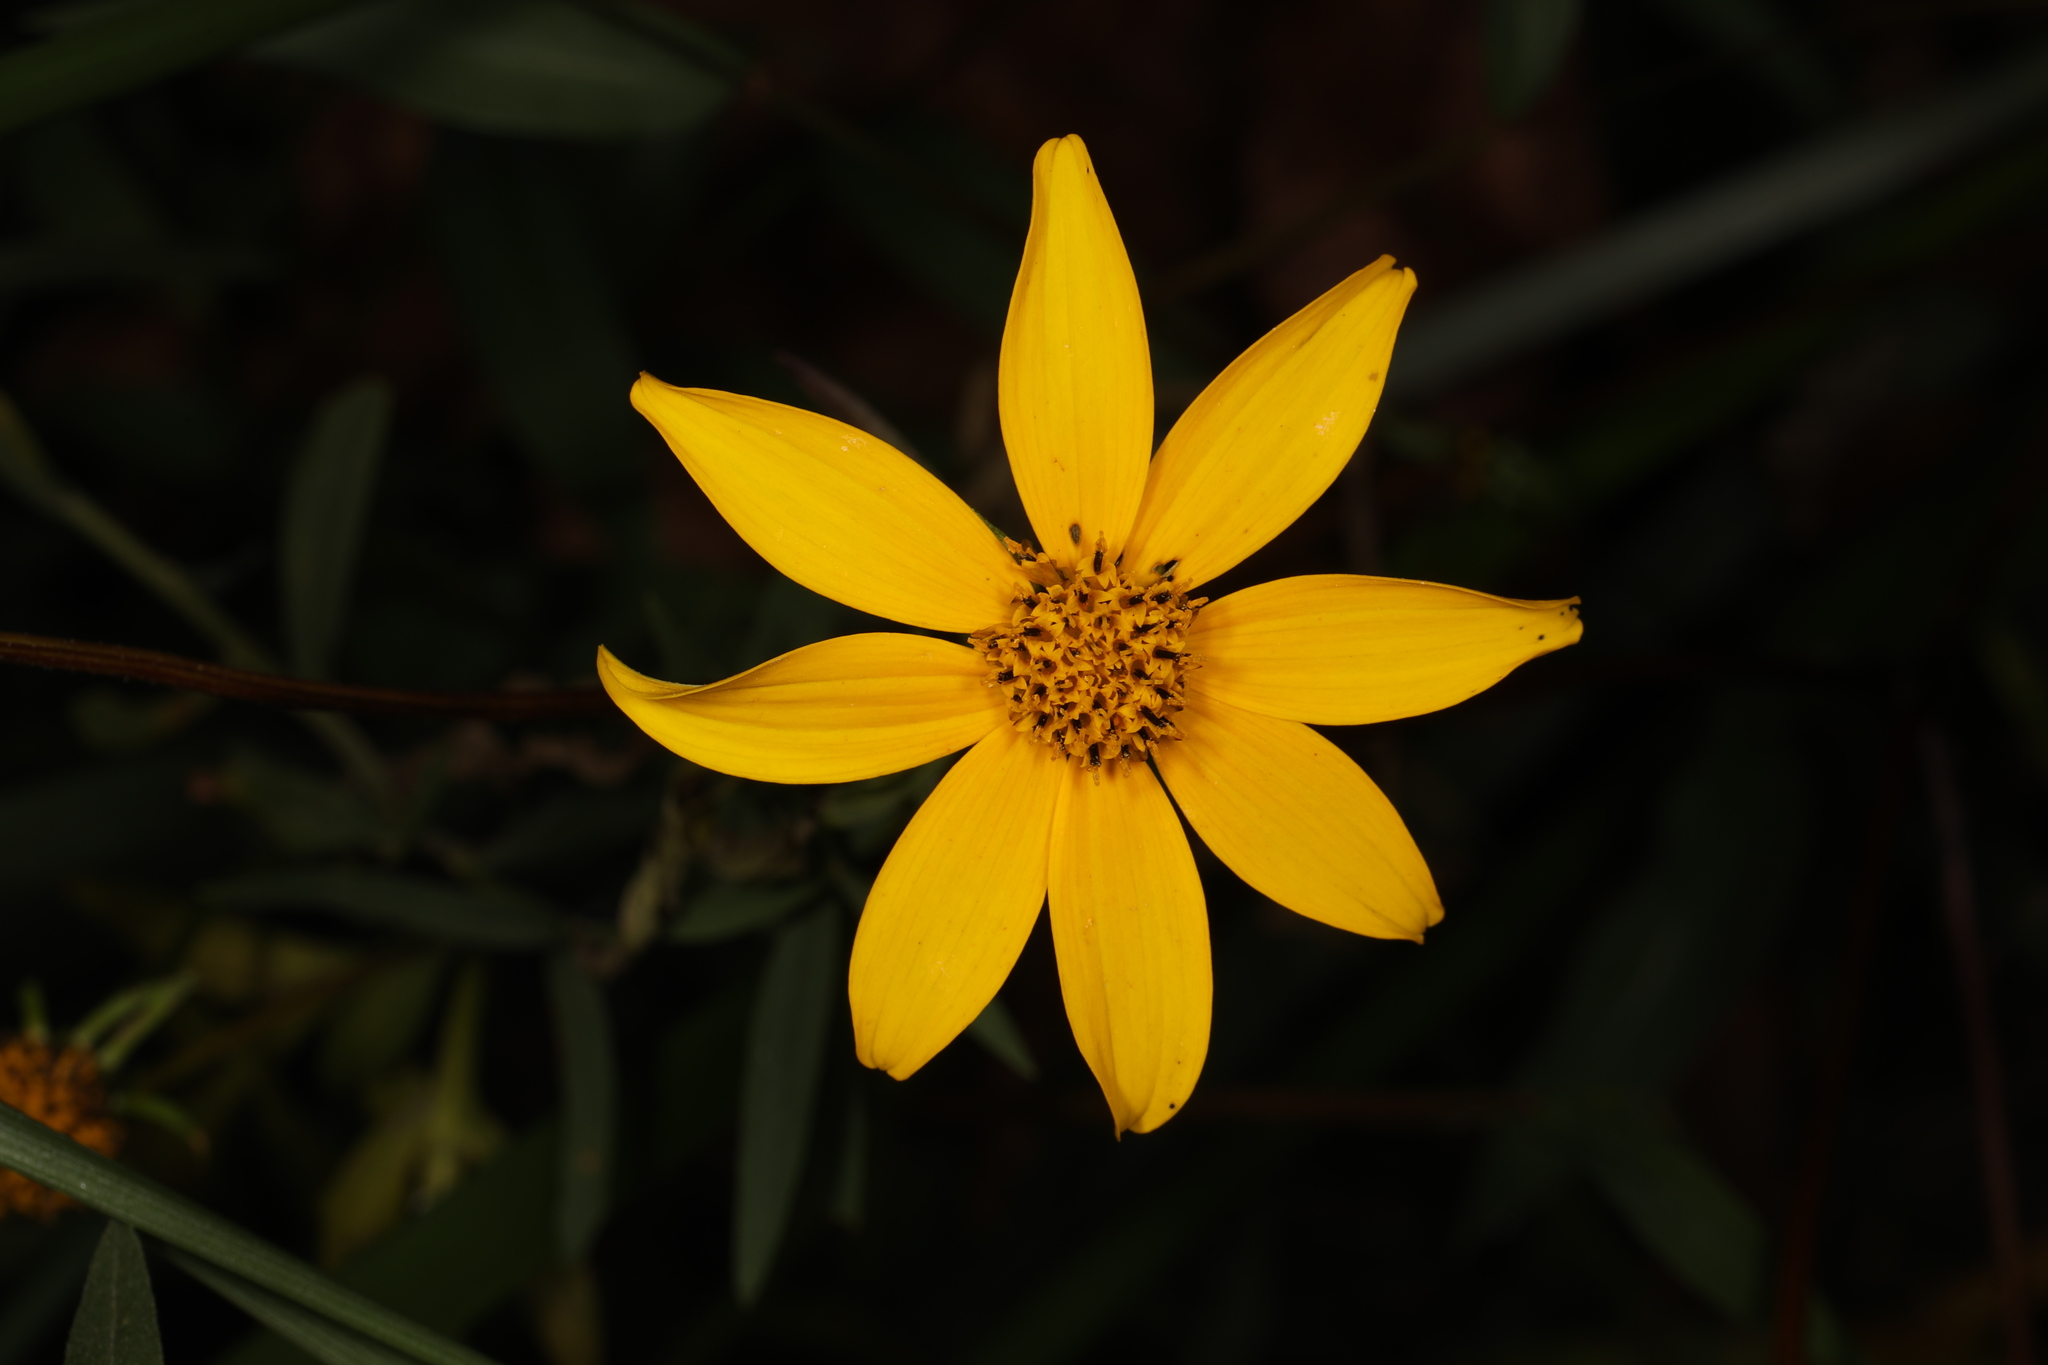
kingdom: Plantae
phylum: Tracheophyta
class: Magnoliopsida
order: Asterales
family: Asteraceae
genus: Bidens
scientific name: Bidens aristosa
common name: Western tickseed
